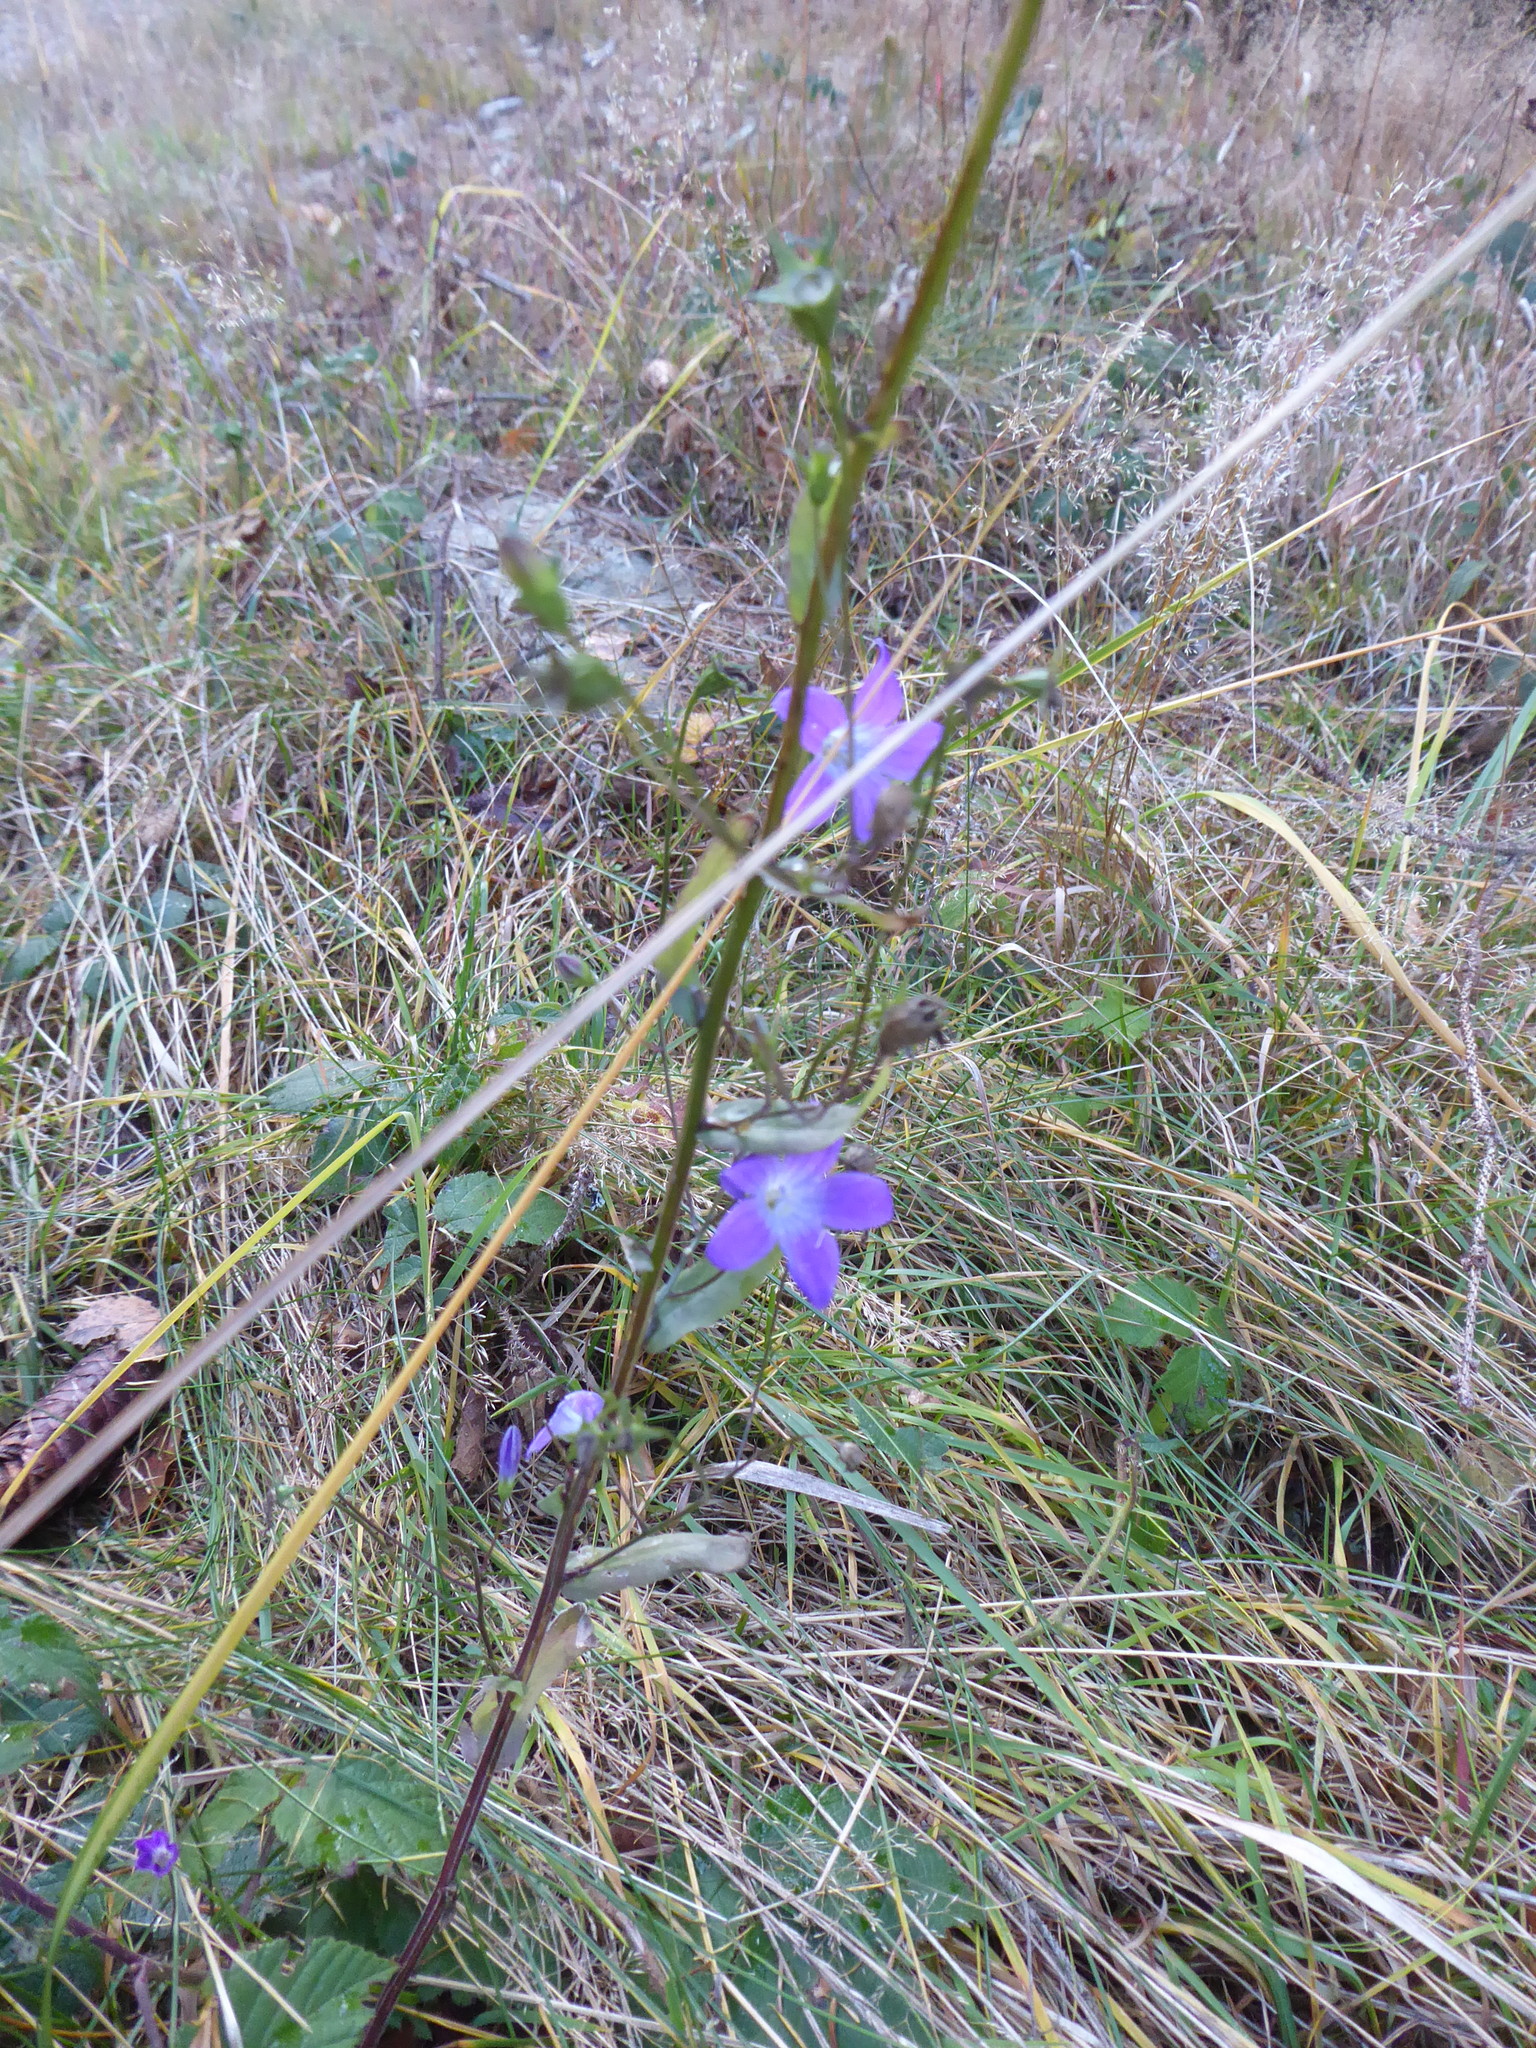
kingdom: Plantae
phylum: Tracheophyta
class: Magnoliopsida
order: Asterales
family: Campanulaceae
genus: Campanula
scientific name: Campanula patula
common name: Spreading bellflower
